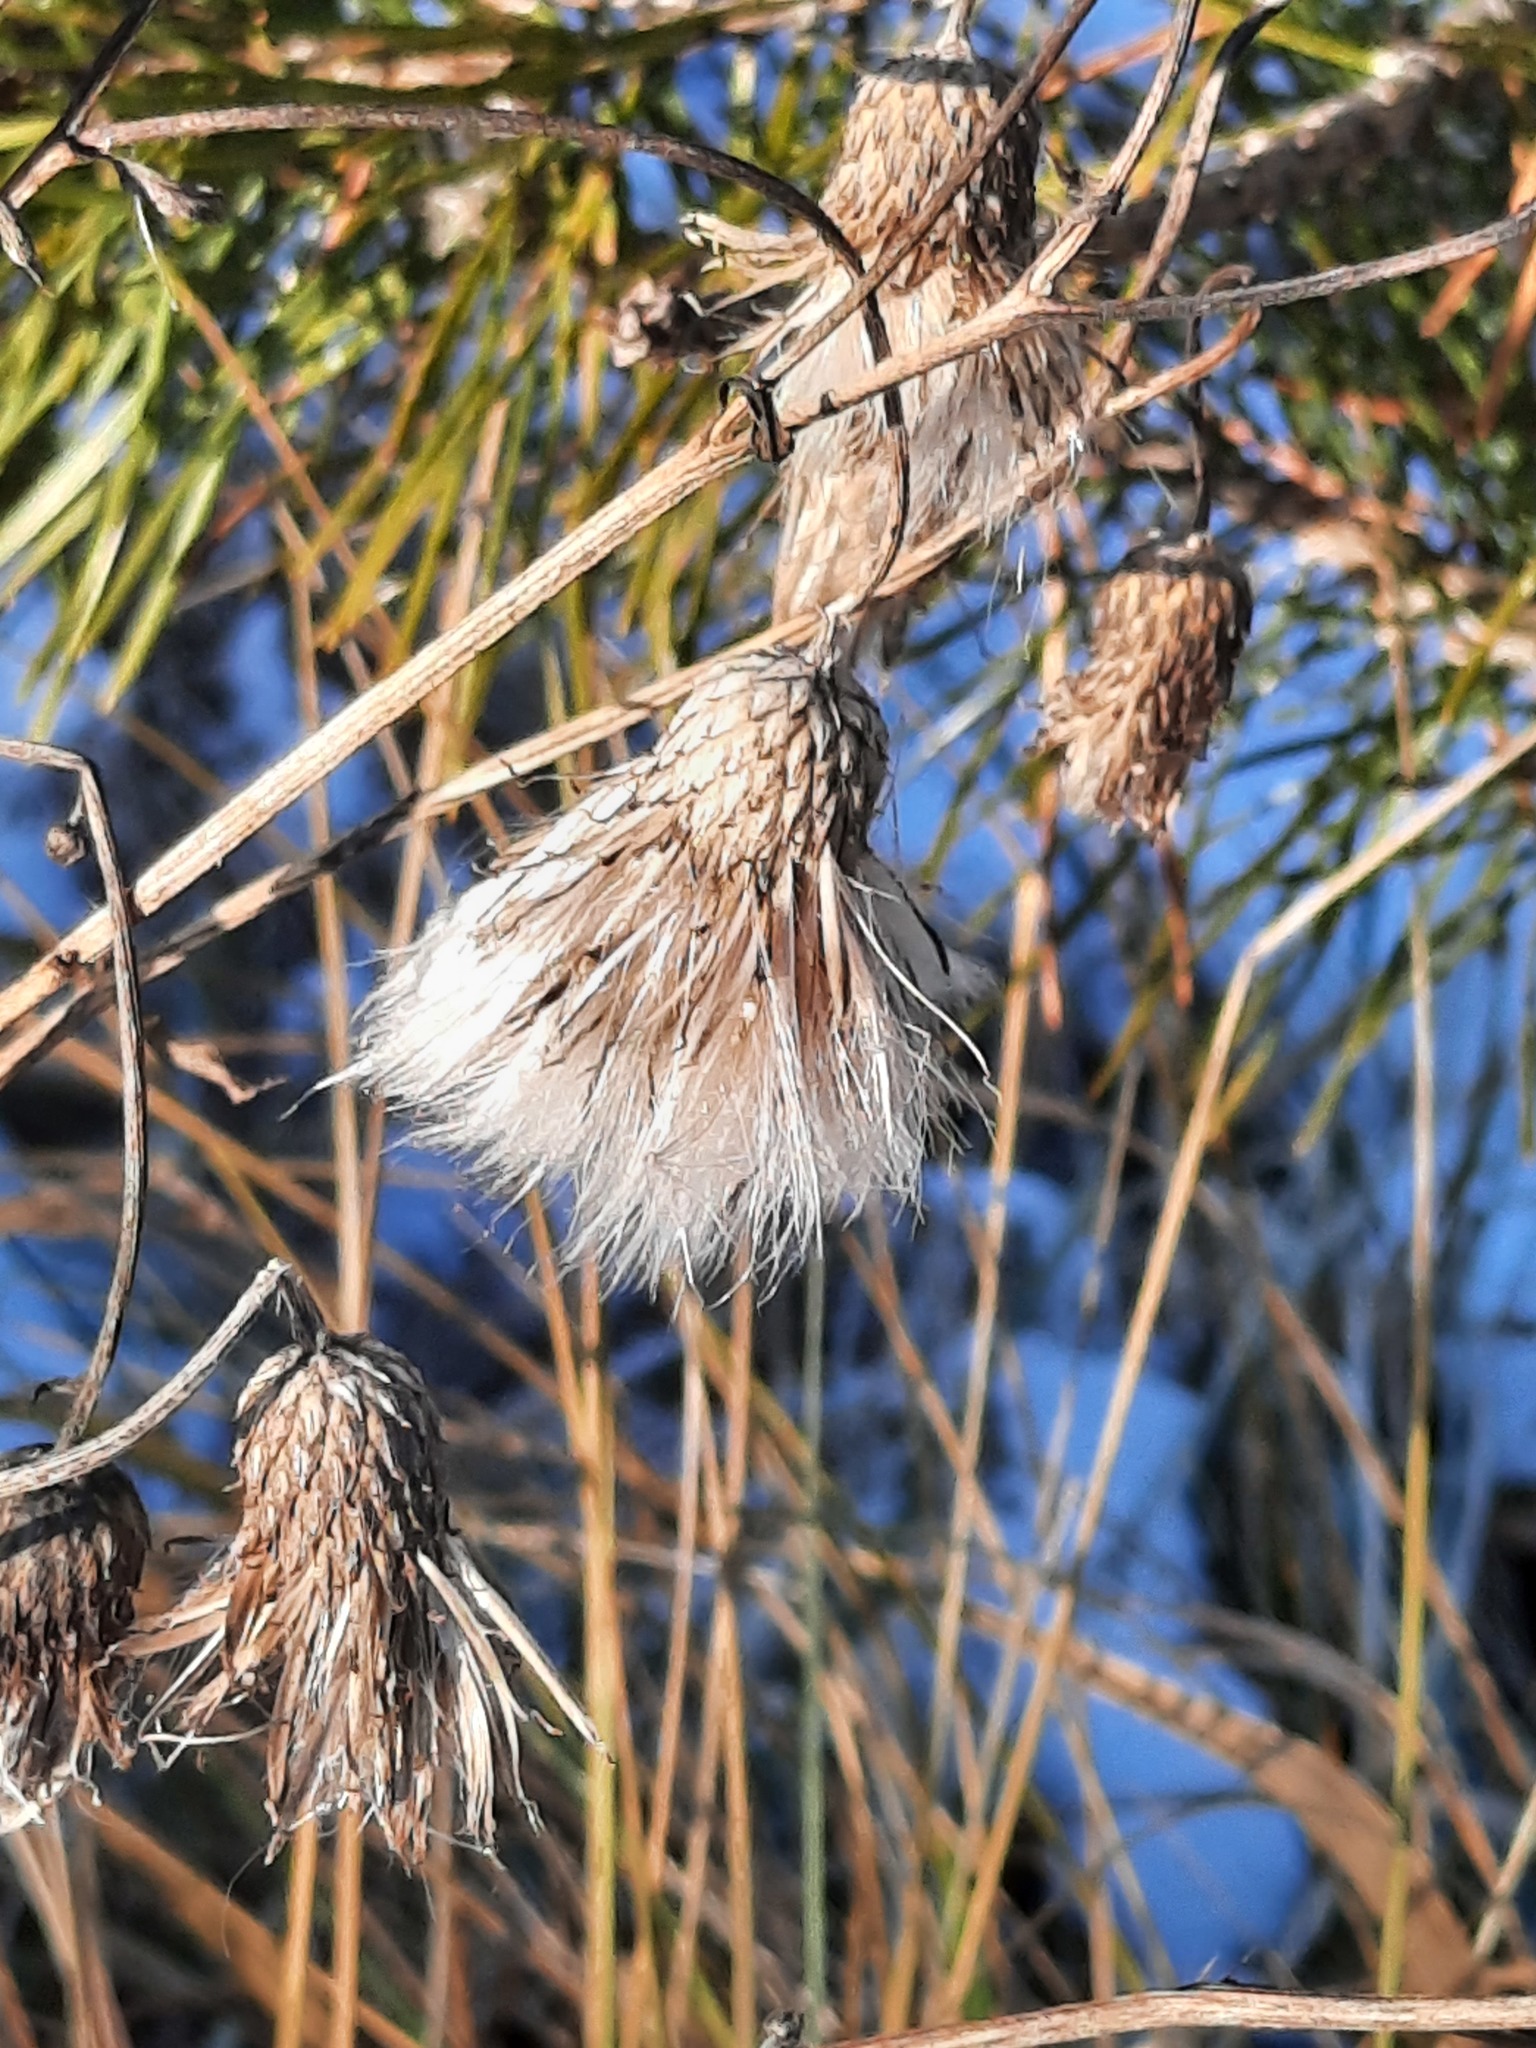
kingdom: Plantae
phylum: Tracheophyta
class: Magnoliopsida
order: Asterales
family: Asteraceae
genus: Cirsium
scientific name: Cirsium arvense
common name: Creeping thistle
